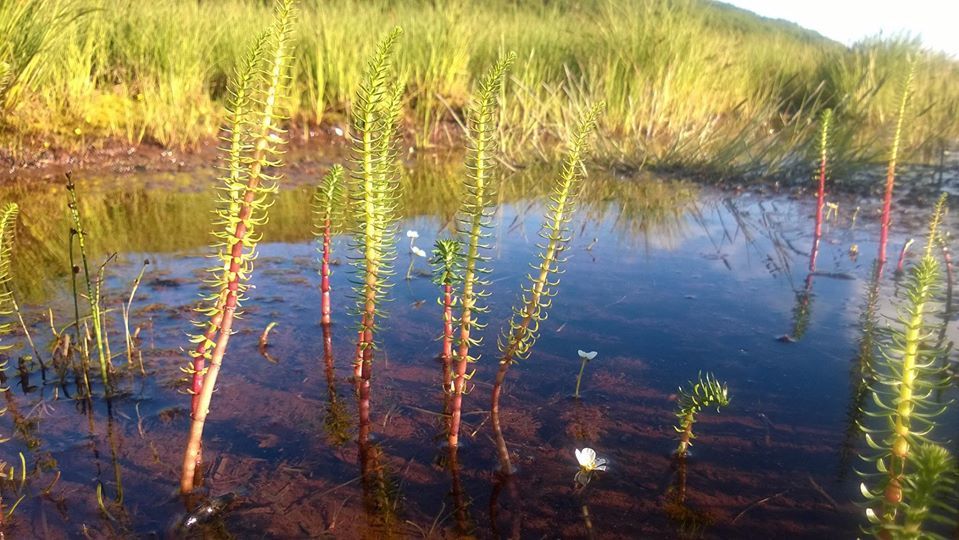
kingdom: Plantae
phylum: Tracheophyta
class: Magnoliopsida
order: Lamiales
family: Plantaginaceae
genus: Hippuris
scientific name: Hippuris vulgaris
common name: Mare's-tail
